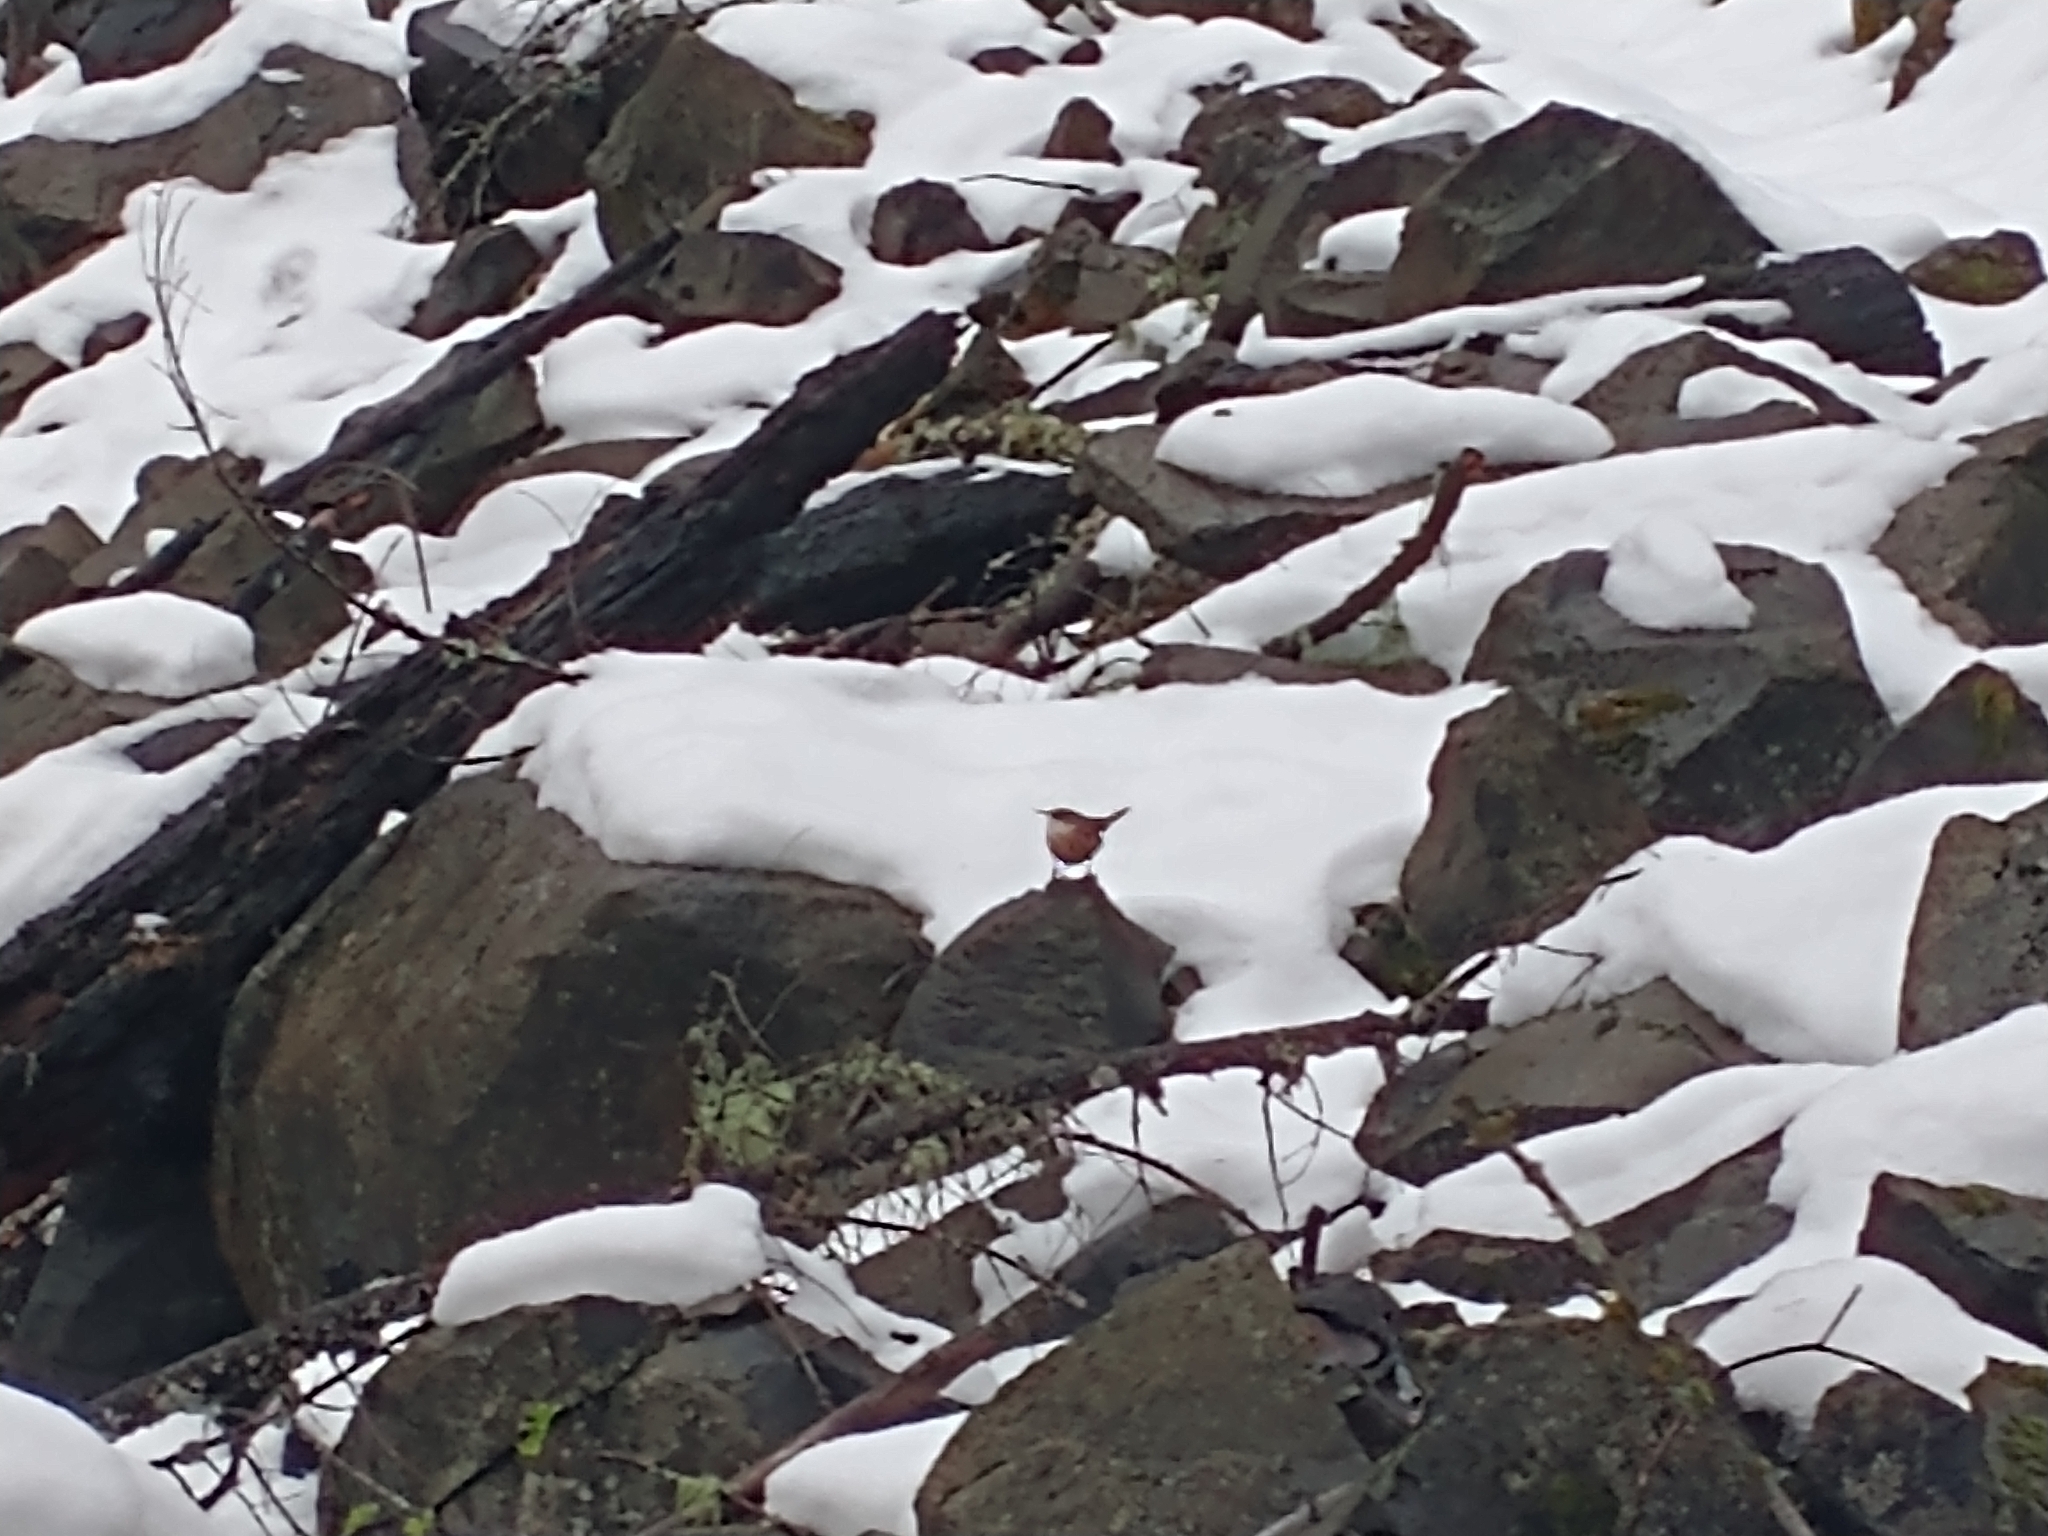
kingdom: Animalia
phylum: Chordata
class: Aves
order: Passeriformes
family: Troglodytidae
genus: Catherpes
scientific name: Catherpes mexicanus
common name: Canyon wren
